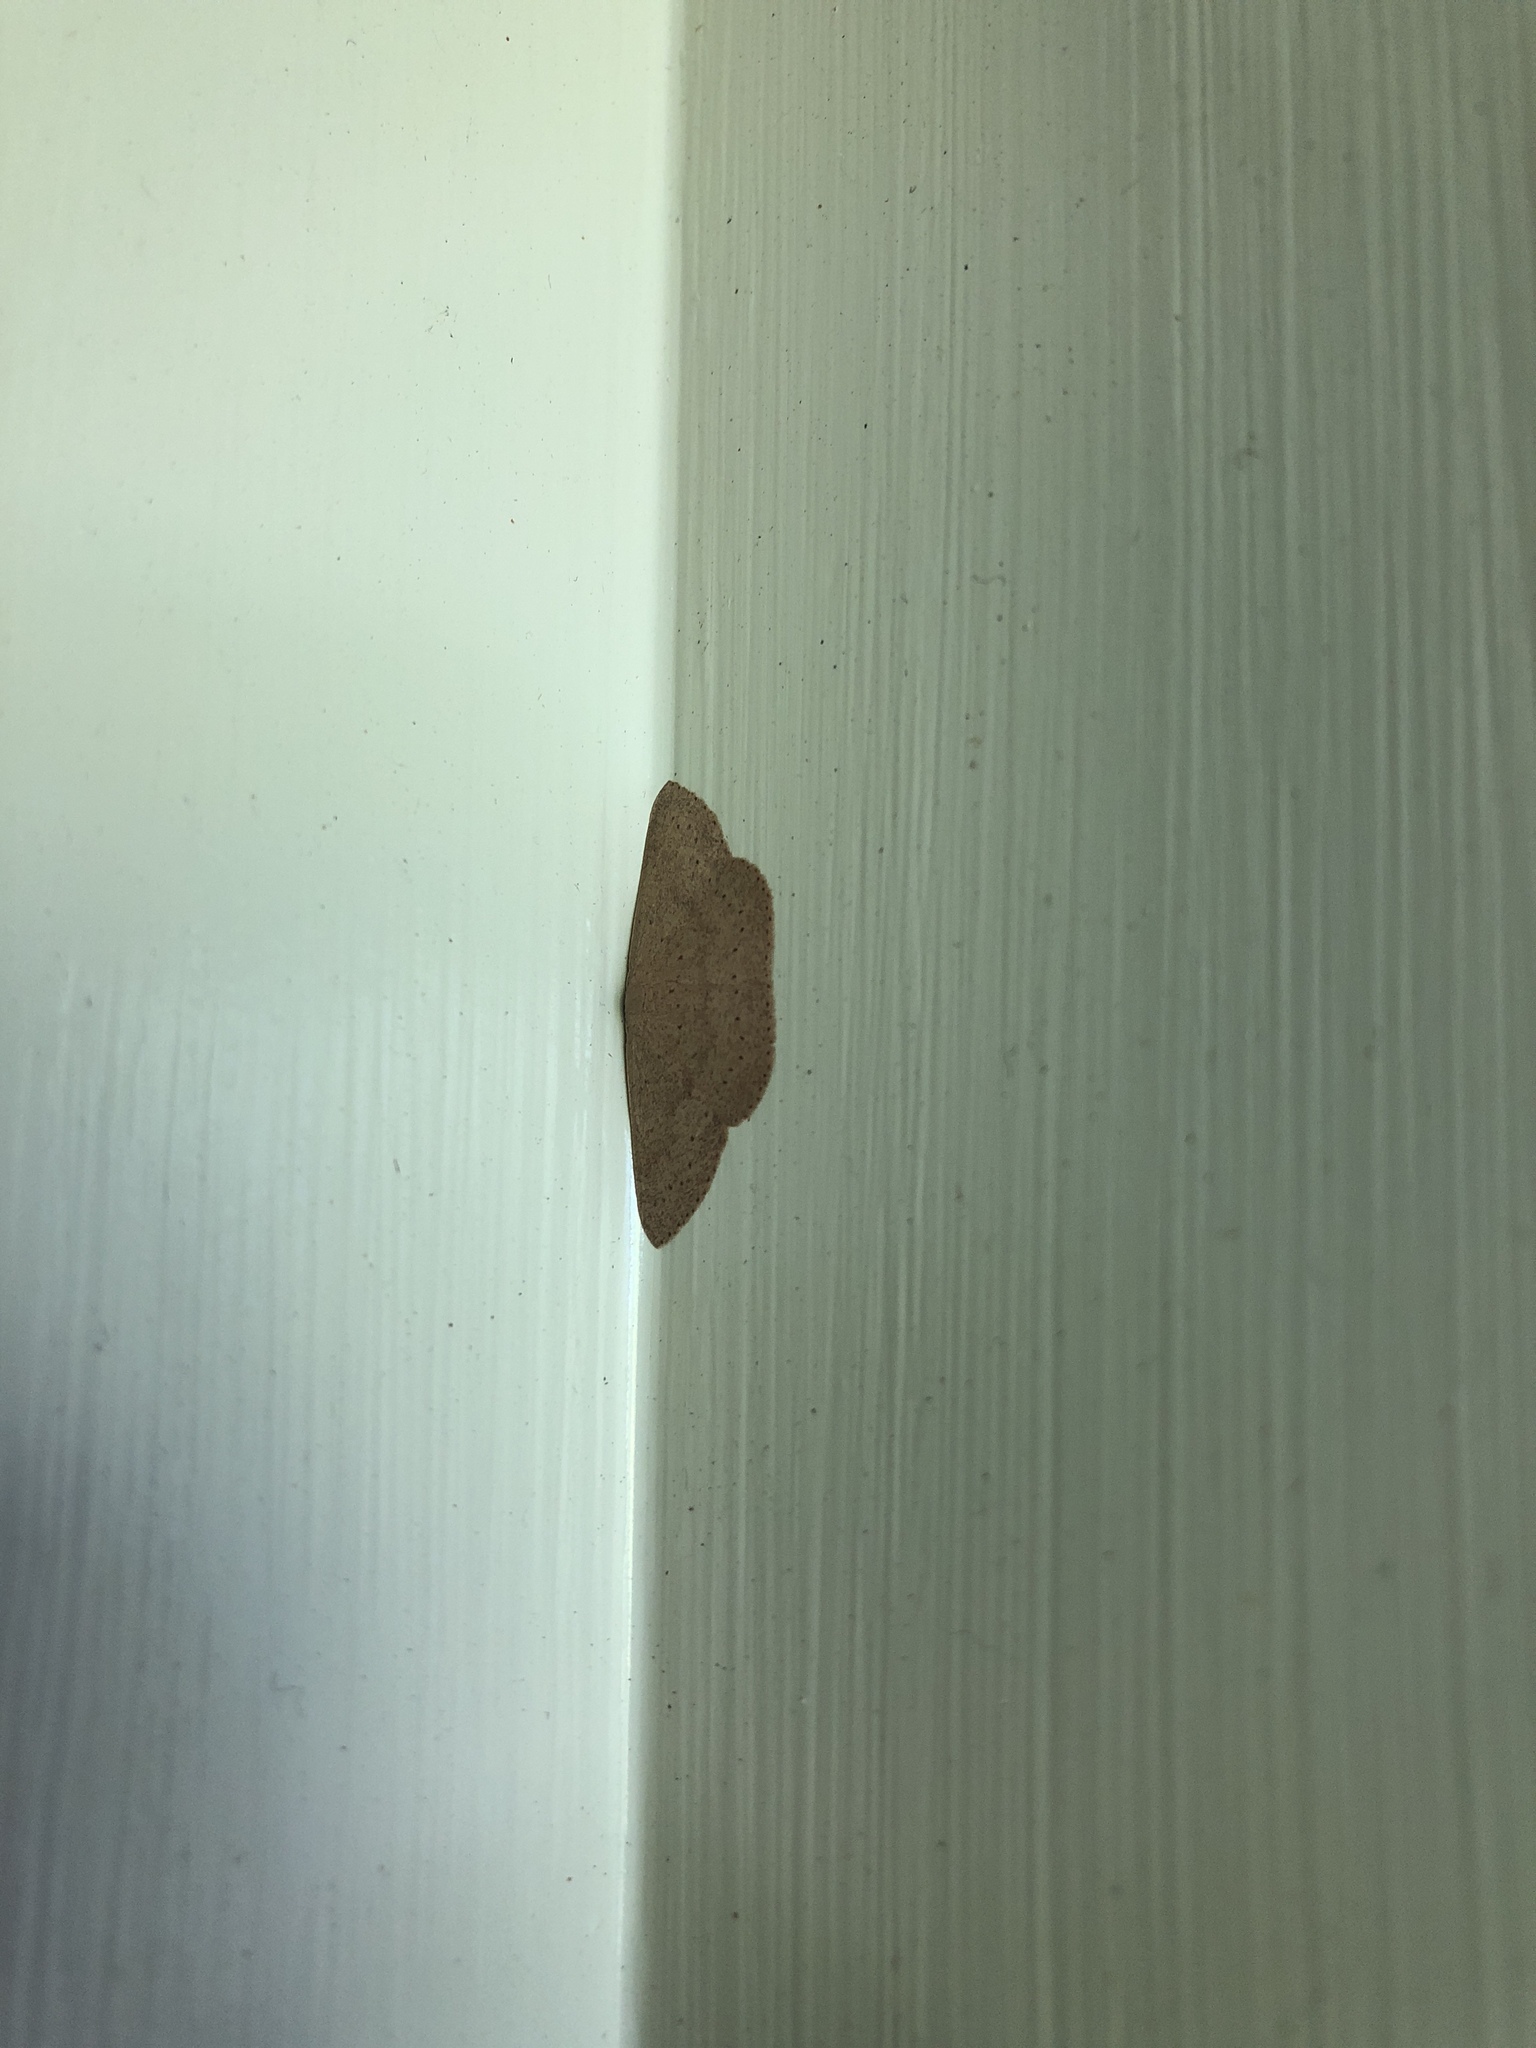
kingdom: Animalia
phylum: Arthropoda
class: Insecta
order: Lepidoptera
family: Geometridae
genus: Cyclophora
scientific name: Cyclophora obstataria
